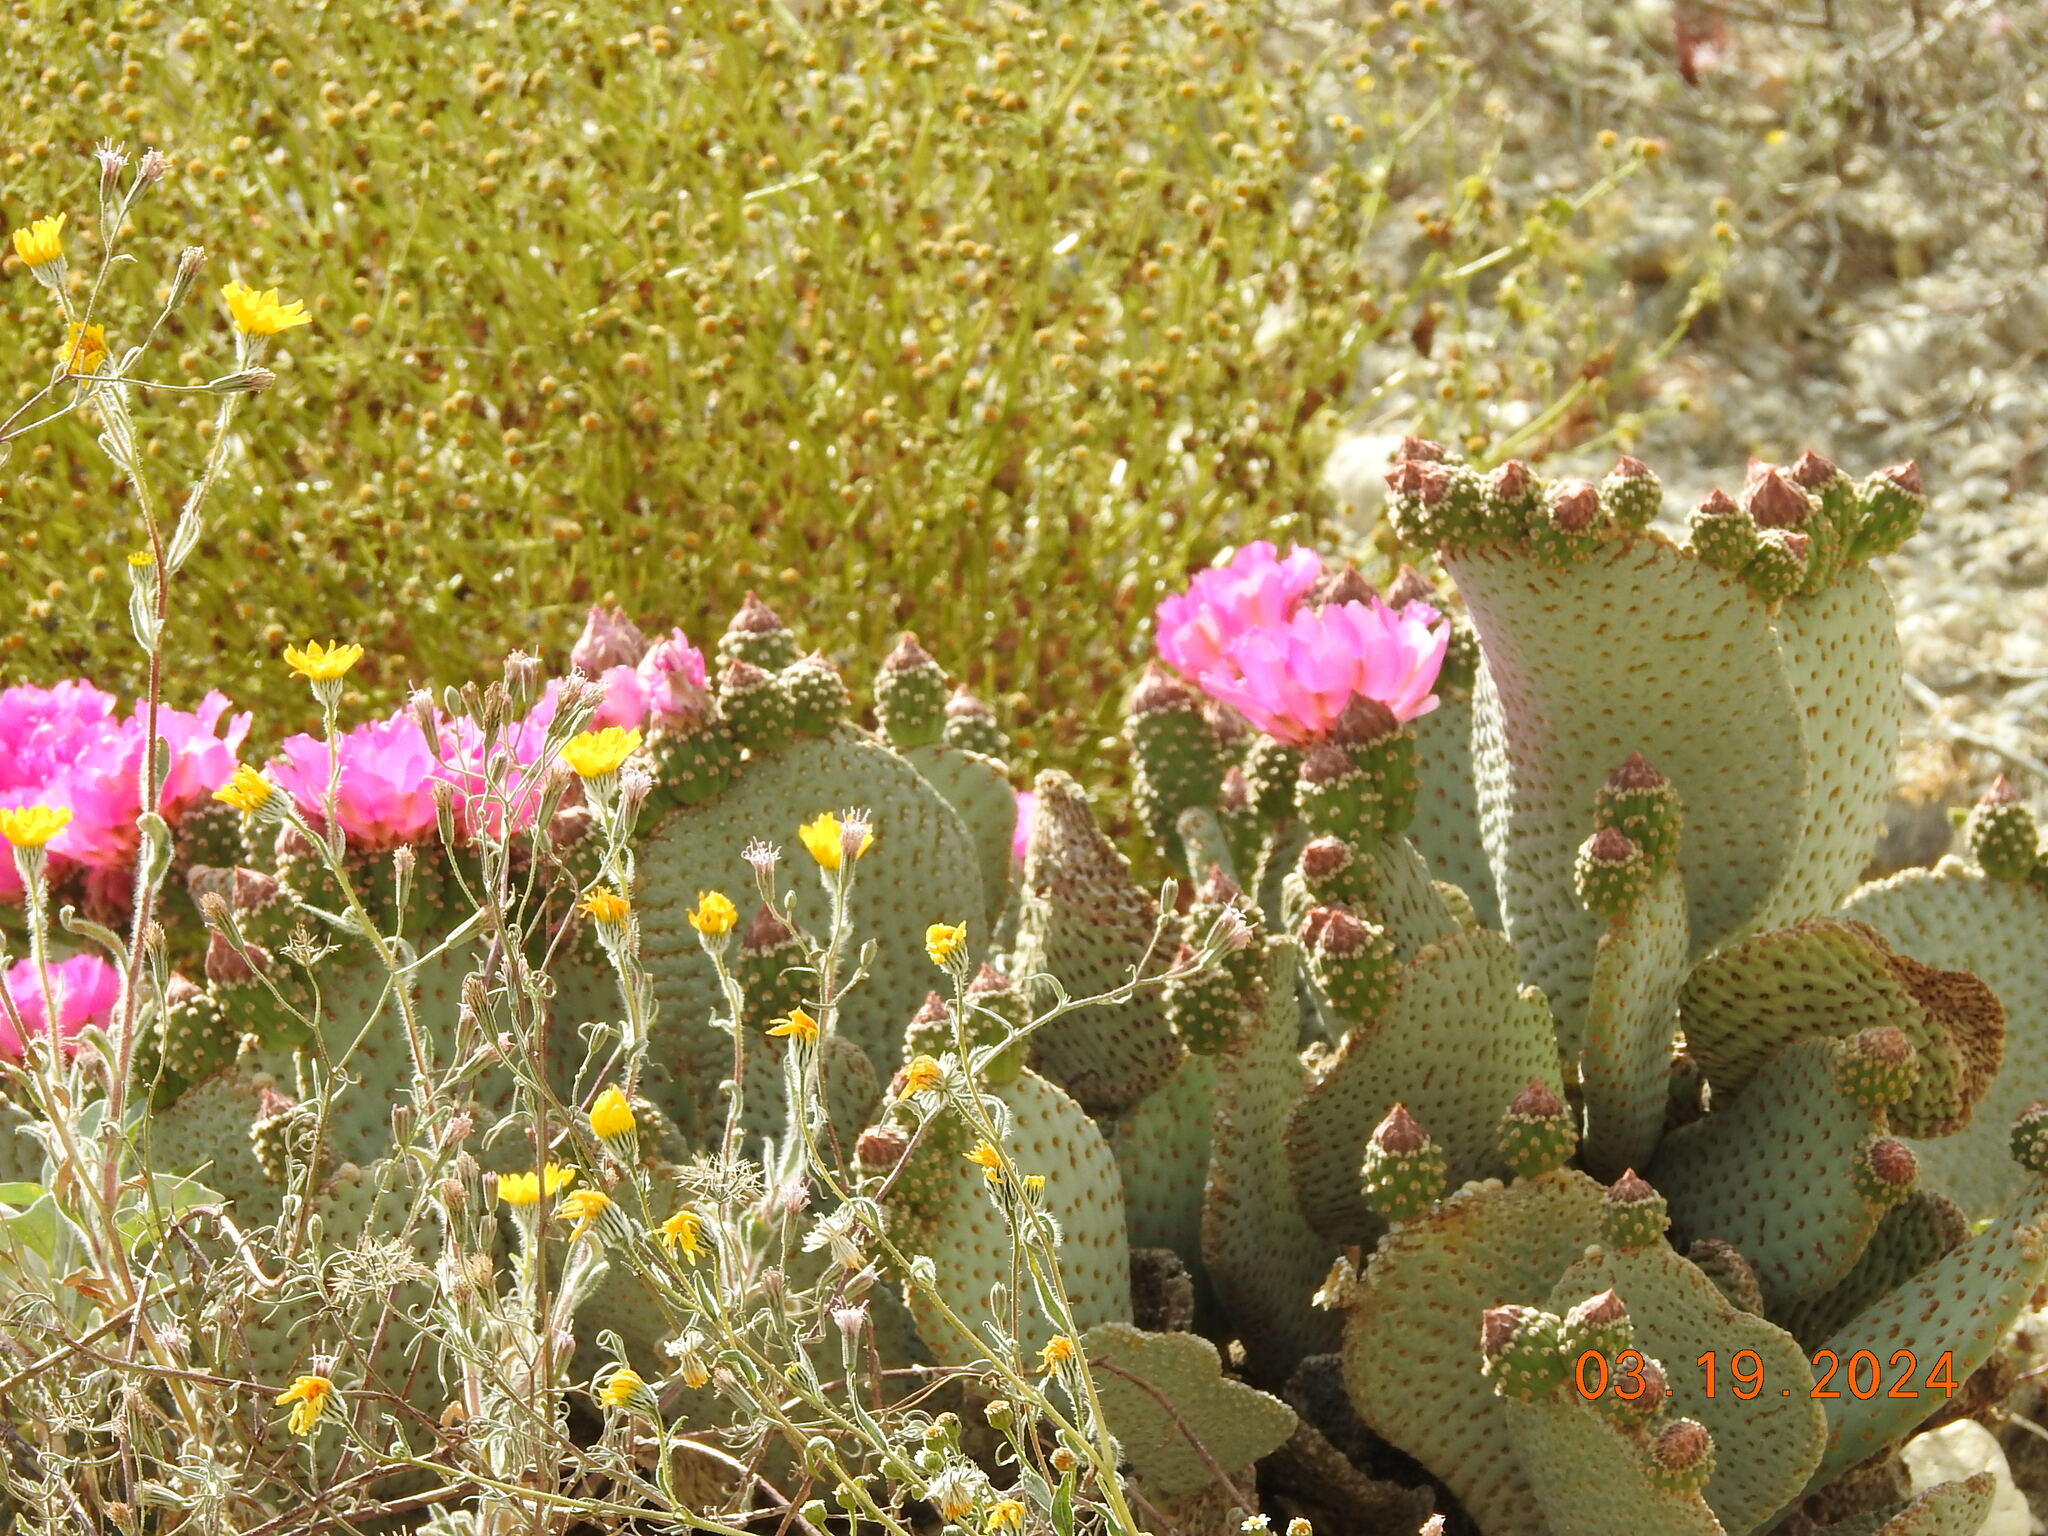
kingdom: Plantae
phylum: Tracheophyta
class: Magnoliopsida
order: Caryophyllales
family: Cactaceae
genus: Opuntia
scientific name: Opuntia basilaris
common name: Beavertail prickly-pear
